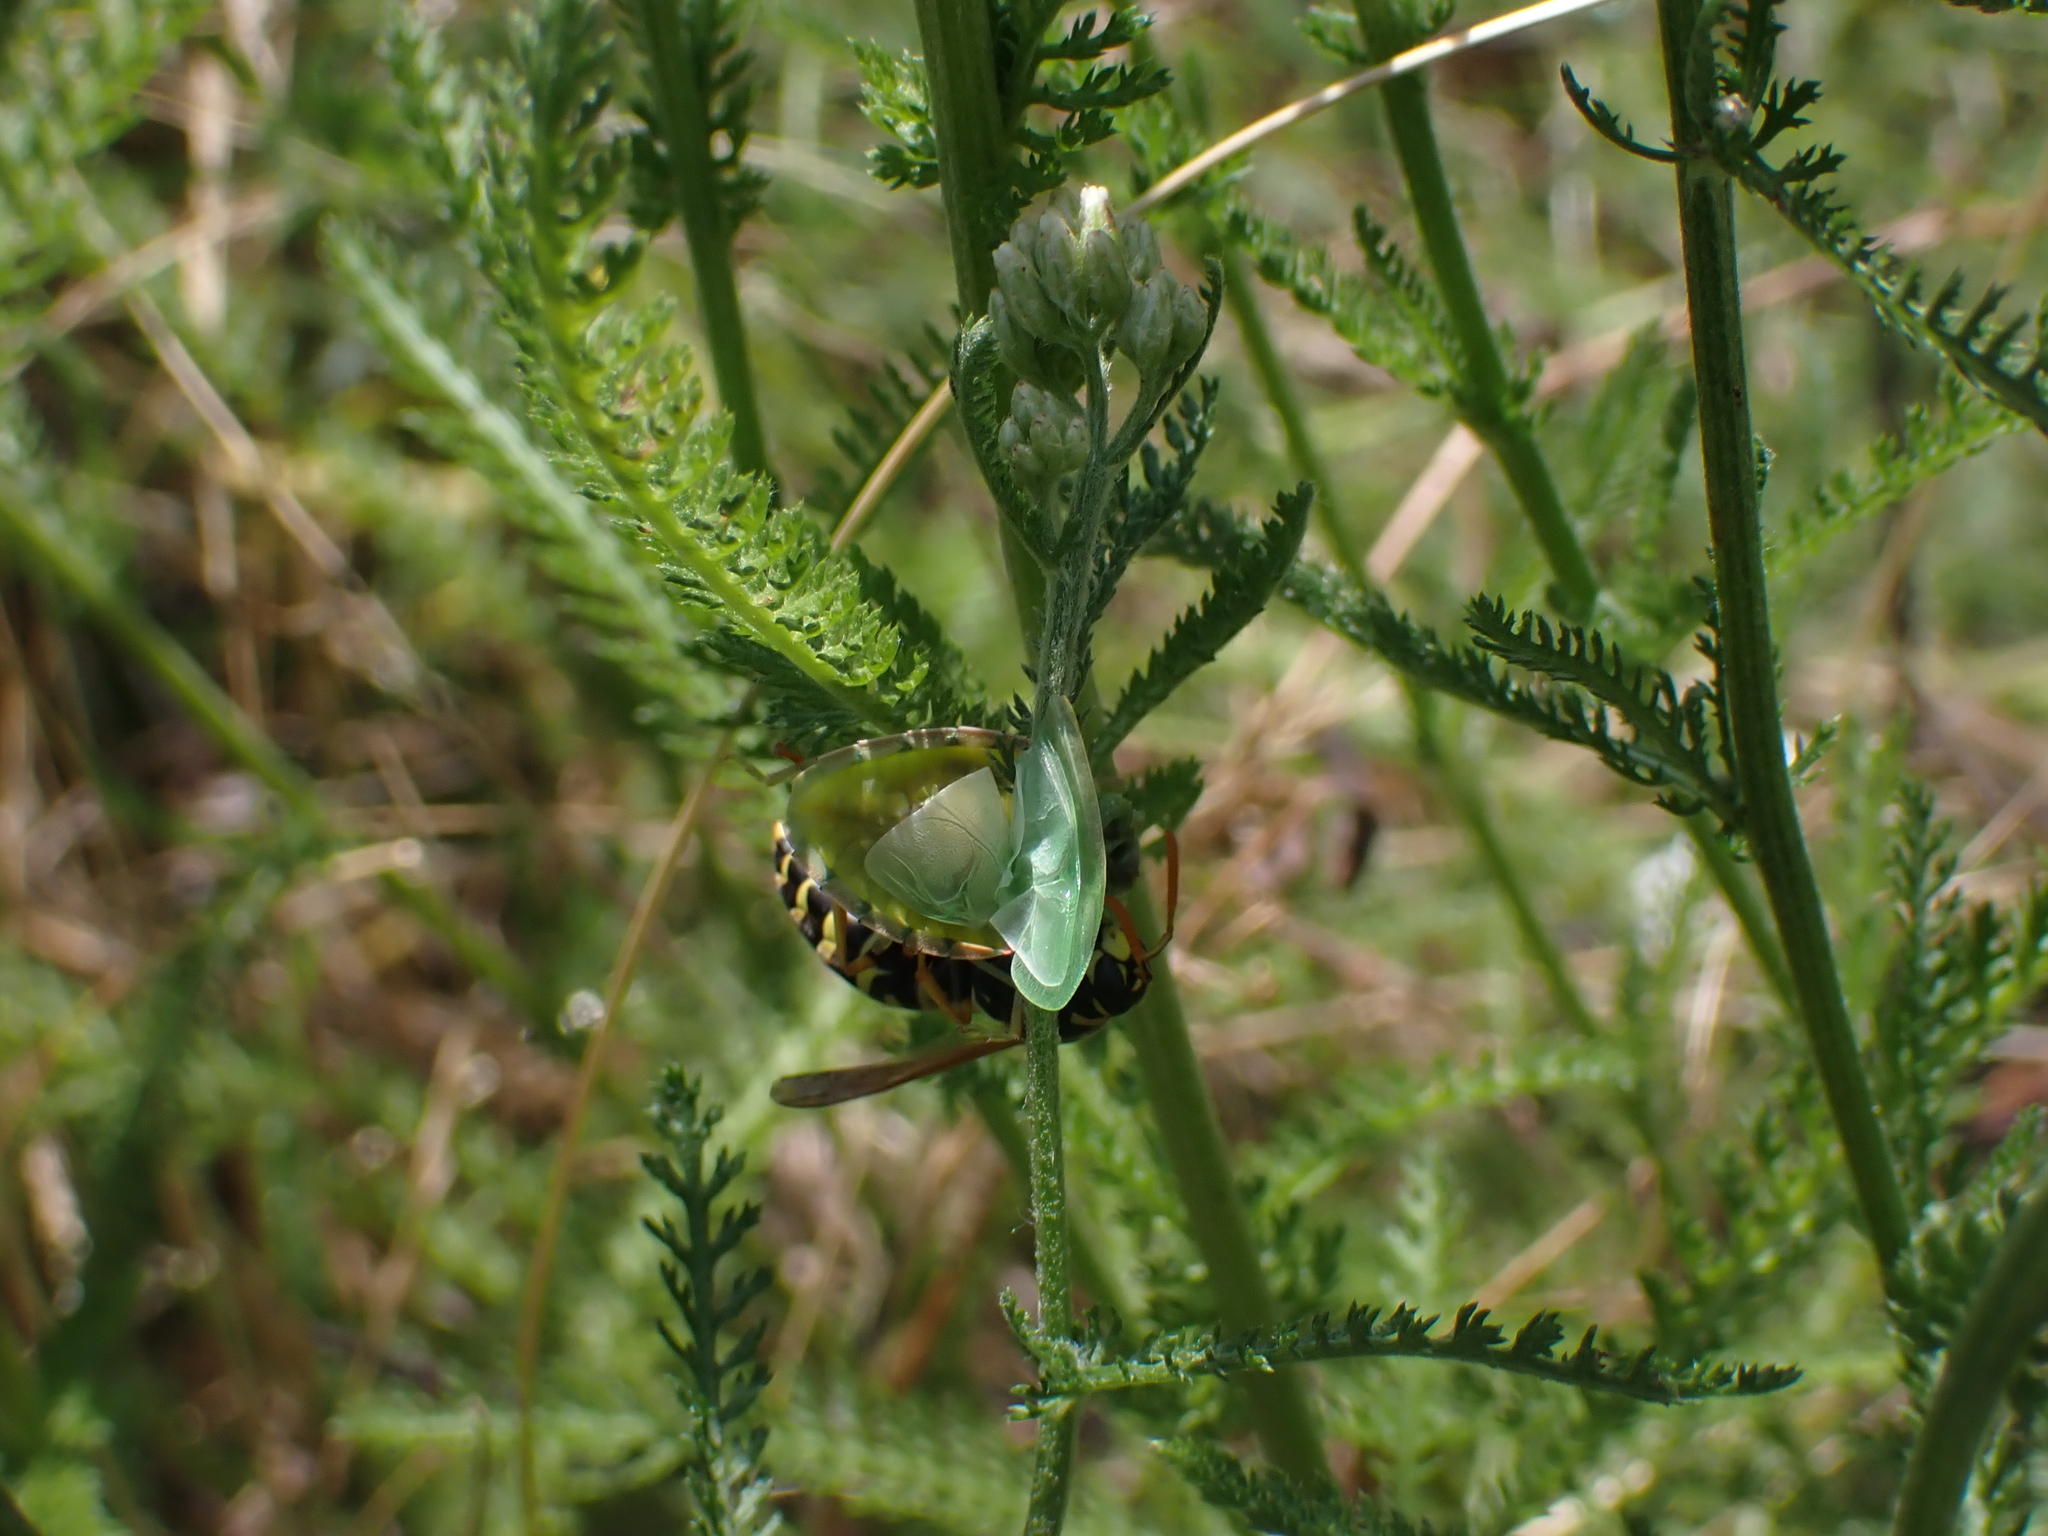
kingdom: Animalia
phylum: Arthropoda
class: Insecta
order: Hymenoptera
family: Eumenidae
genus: Polistes
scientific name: Polistes dominula
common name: Paper wasp
